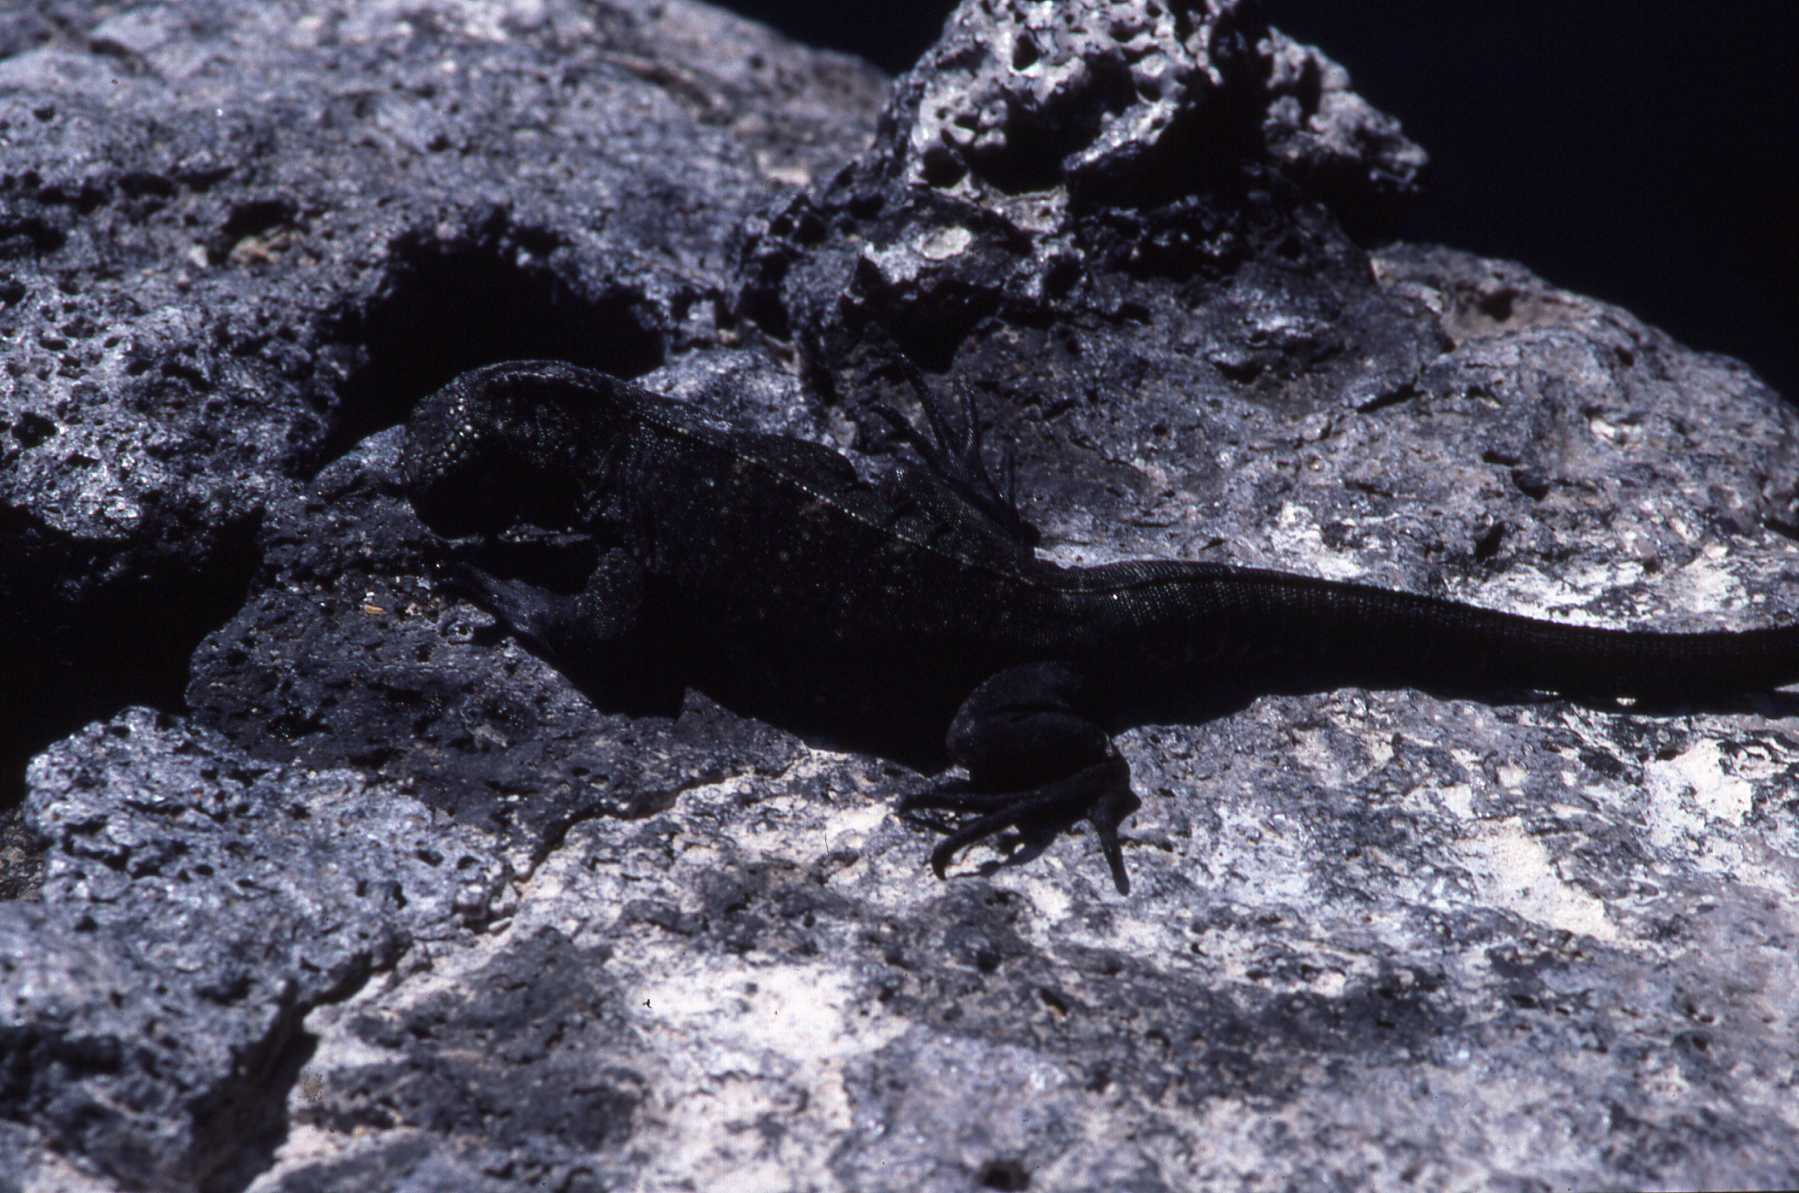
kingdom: Animalia
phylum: Chordata
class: Squamata
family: Iguanidae
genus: Amblyrhynchus
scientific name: Amblyrhynchus cristatus
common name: Marine iguana
